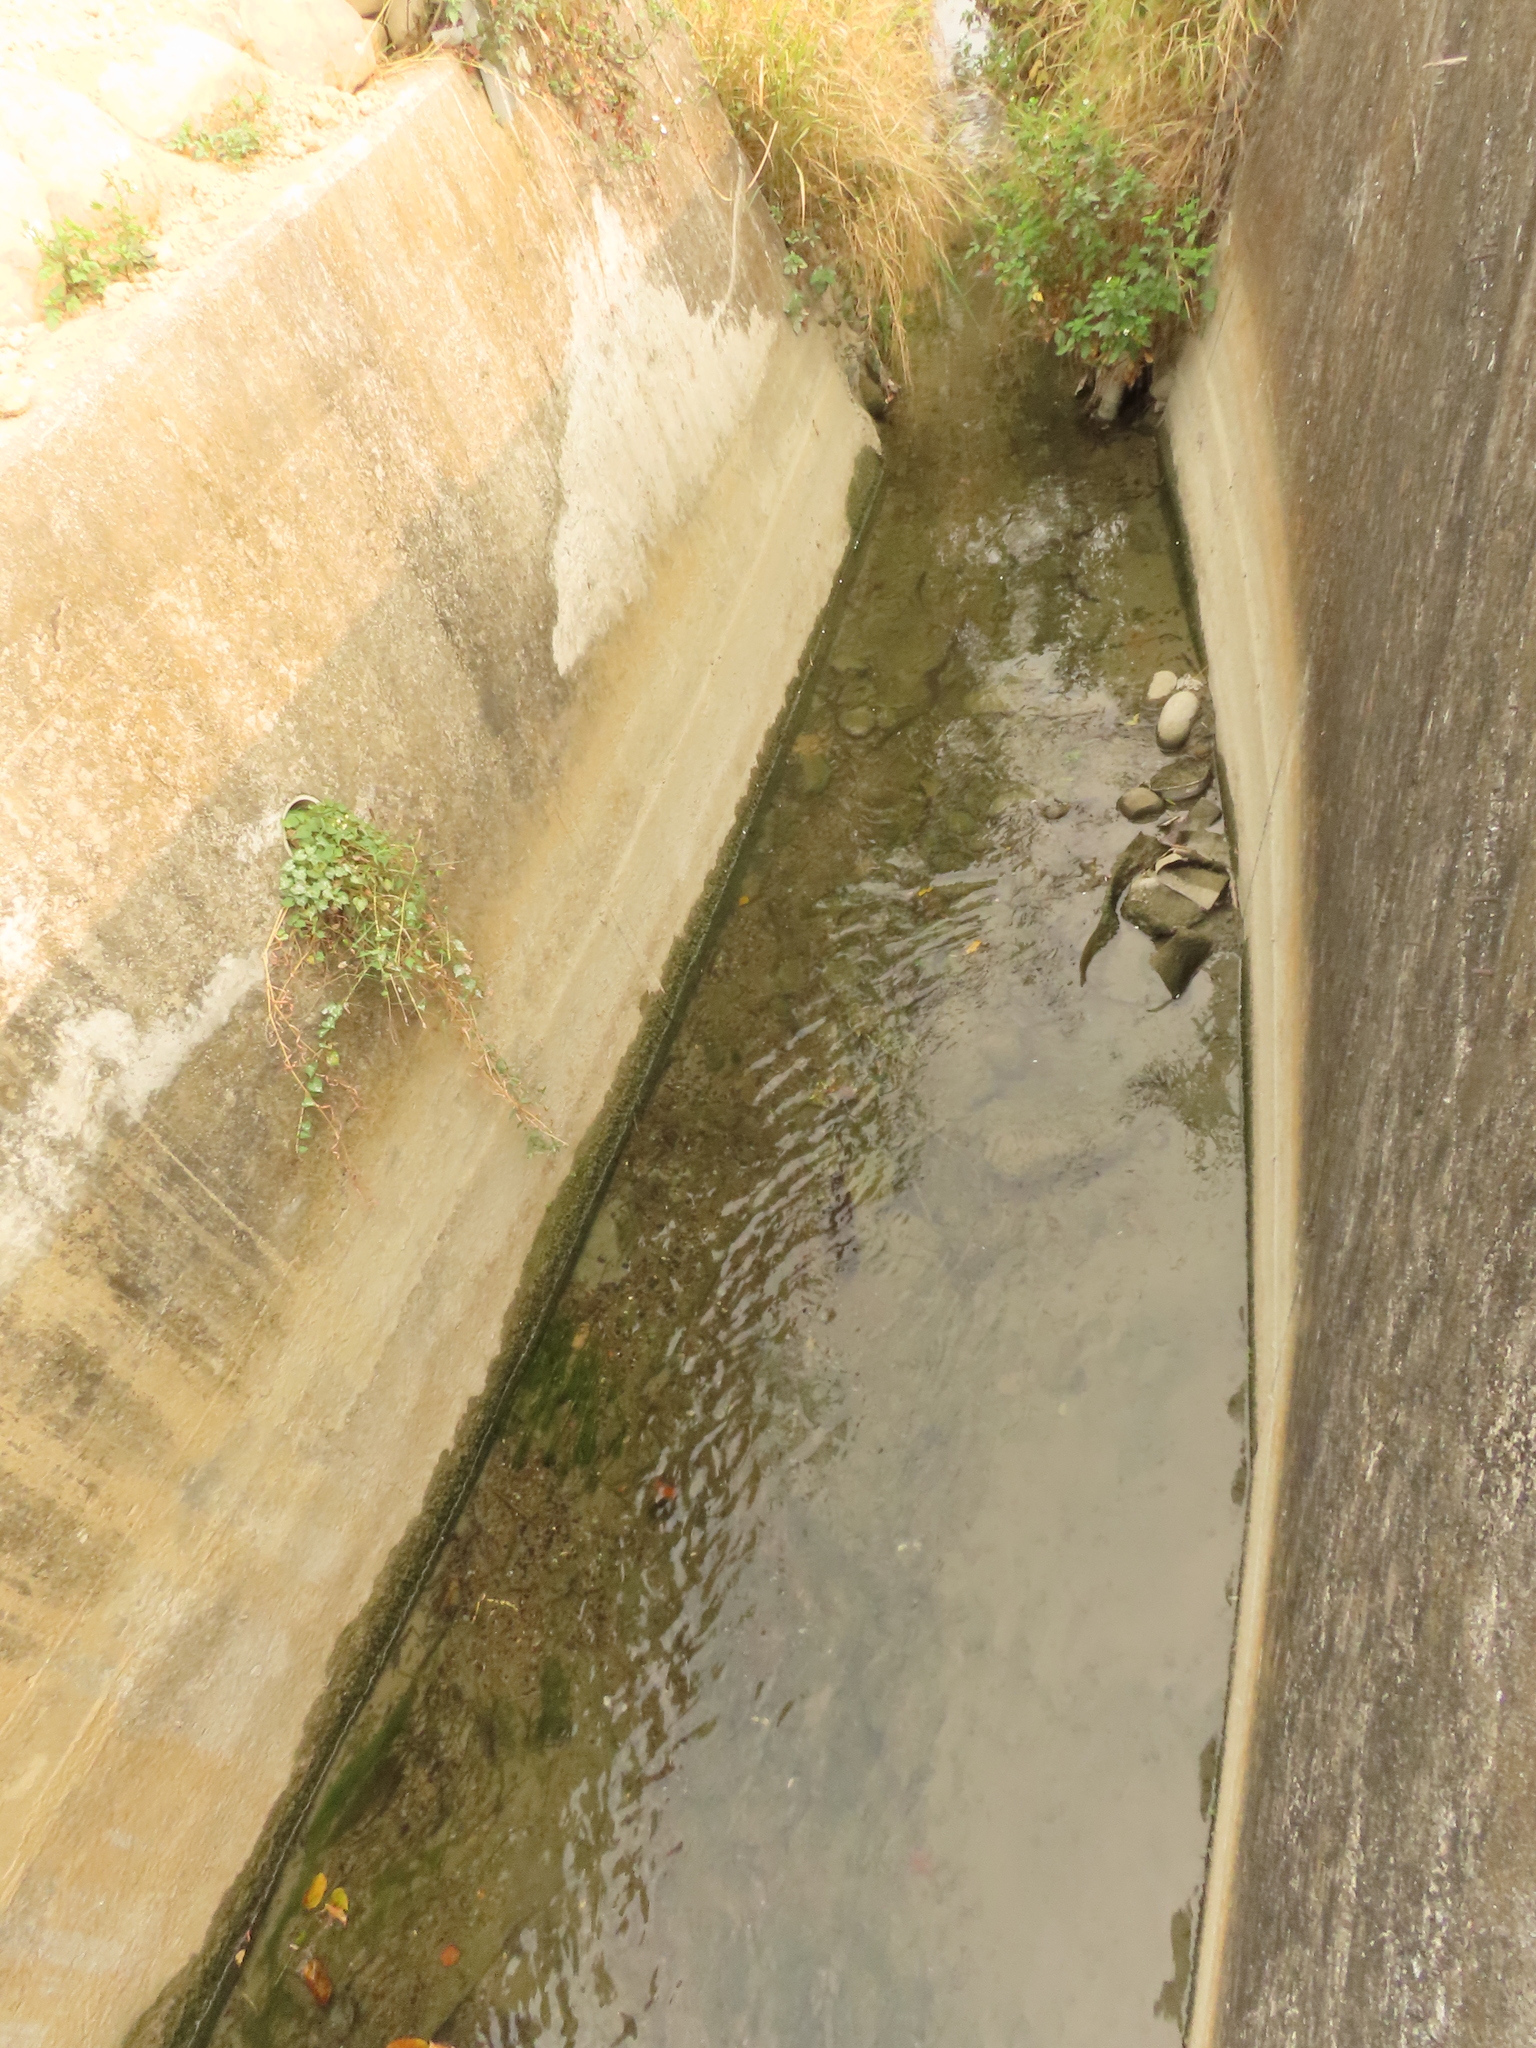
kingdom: Plantae
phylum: Tracheophyta
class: Liliopsida
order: Alismatales
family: Potamogetonaceae
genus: Potamogeton
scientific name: Potamogeton crispus
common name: Curled pondweed
